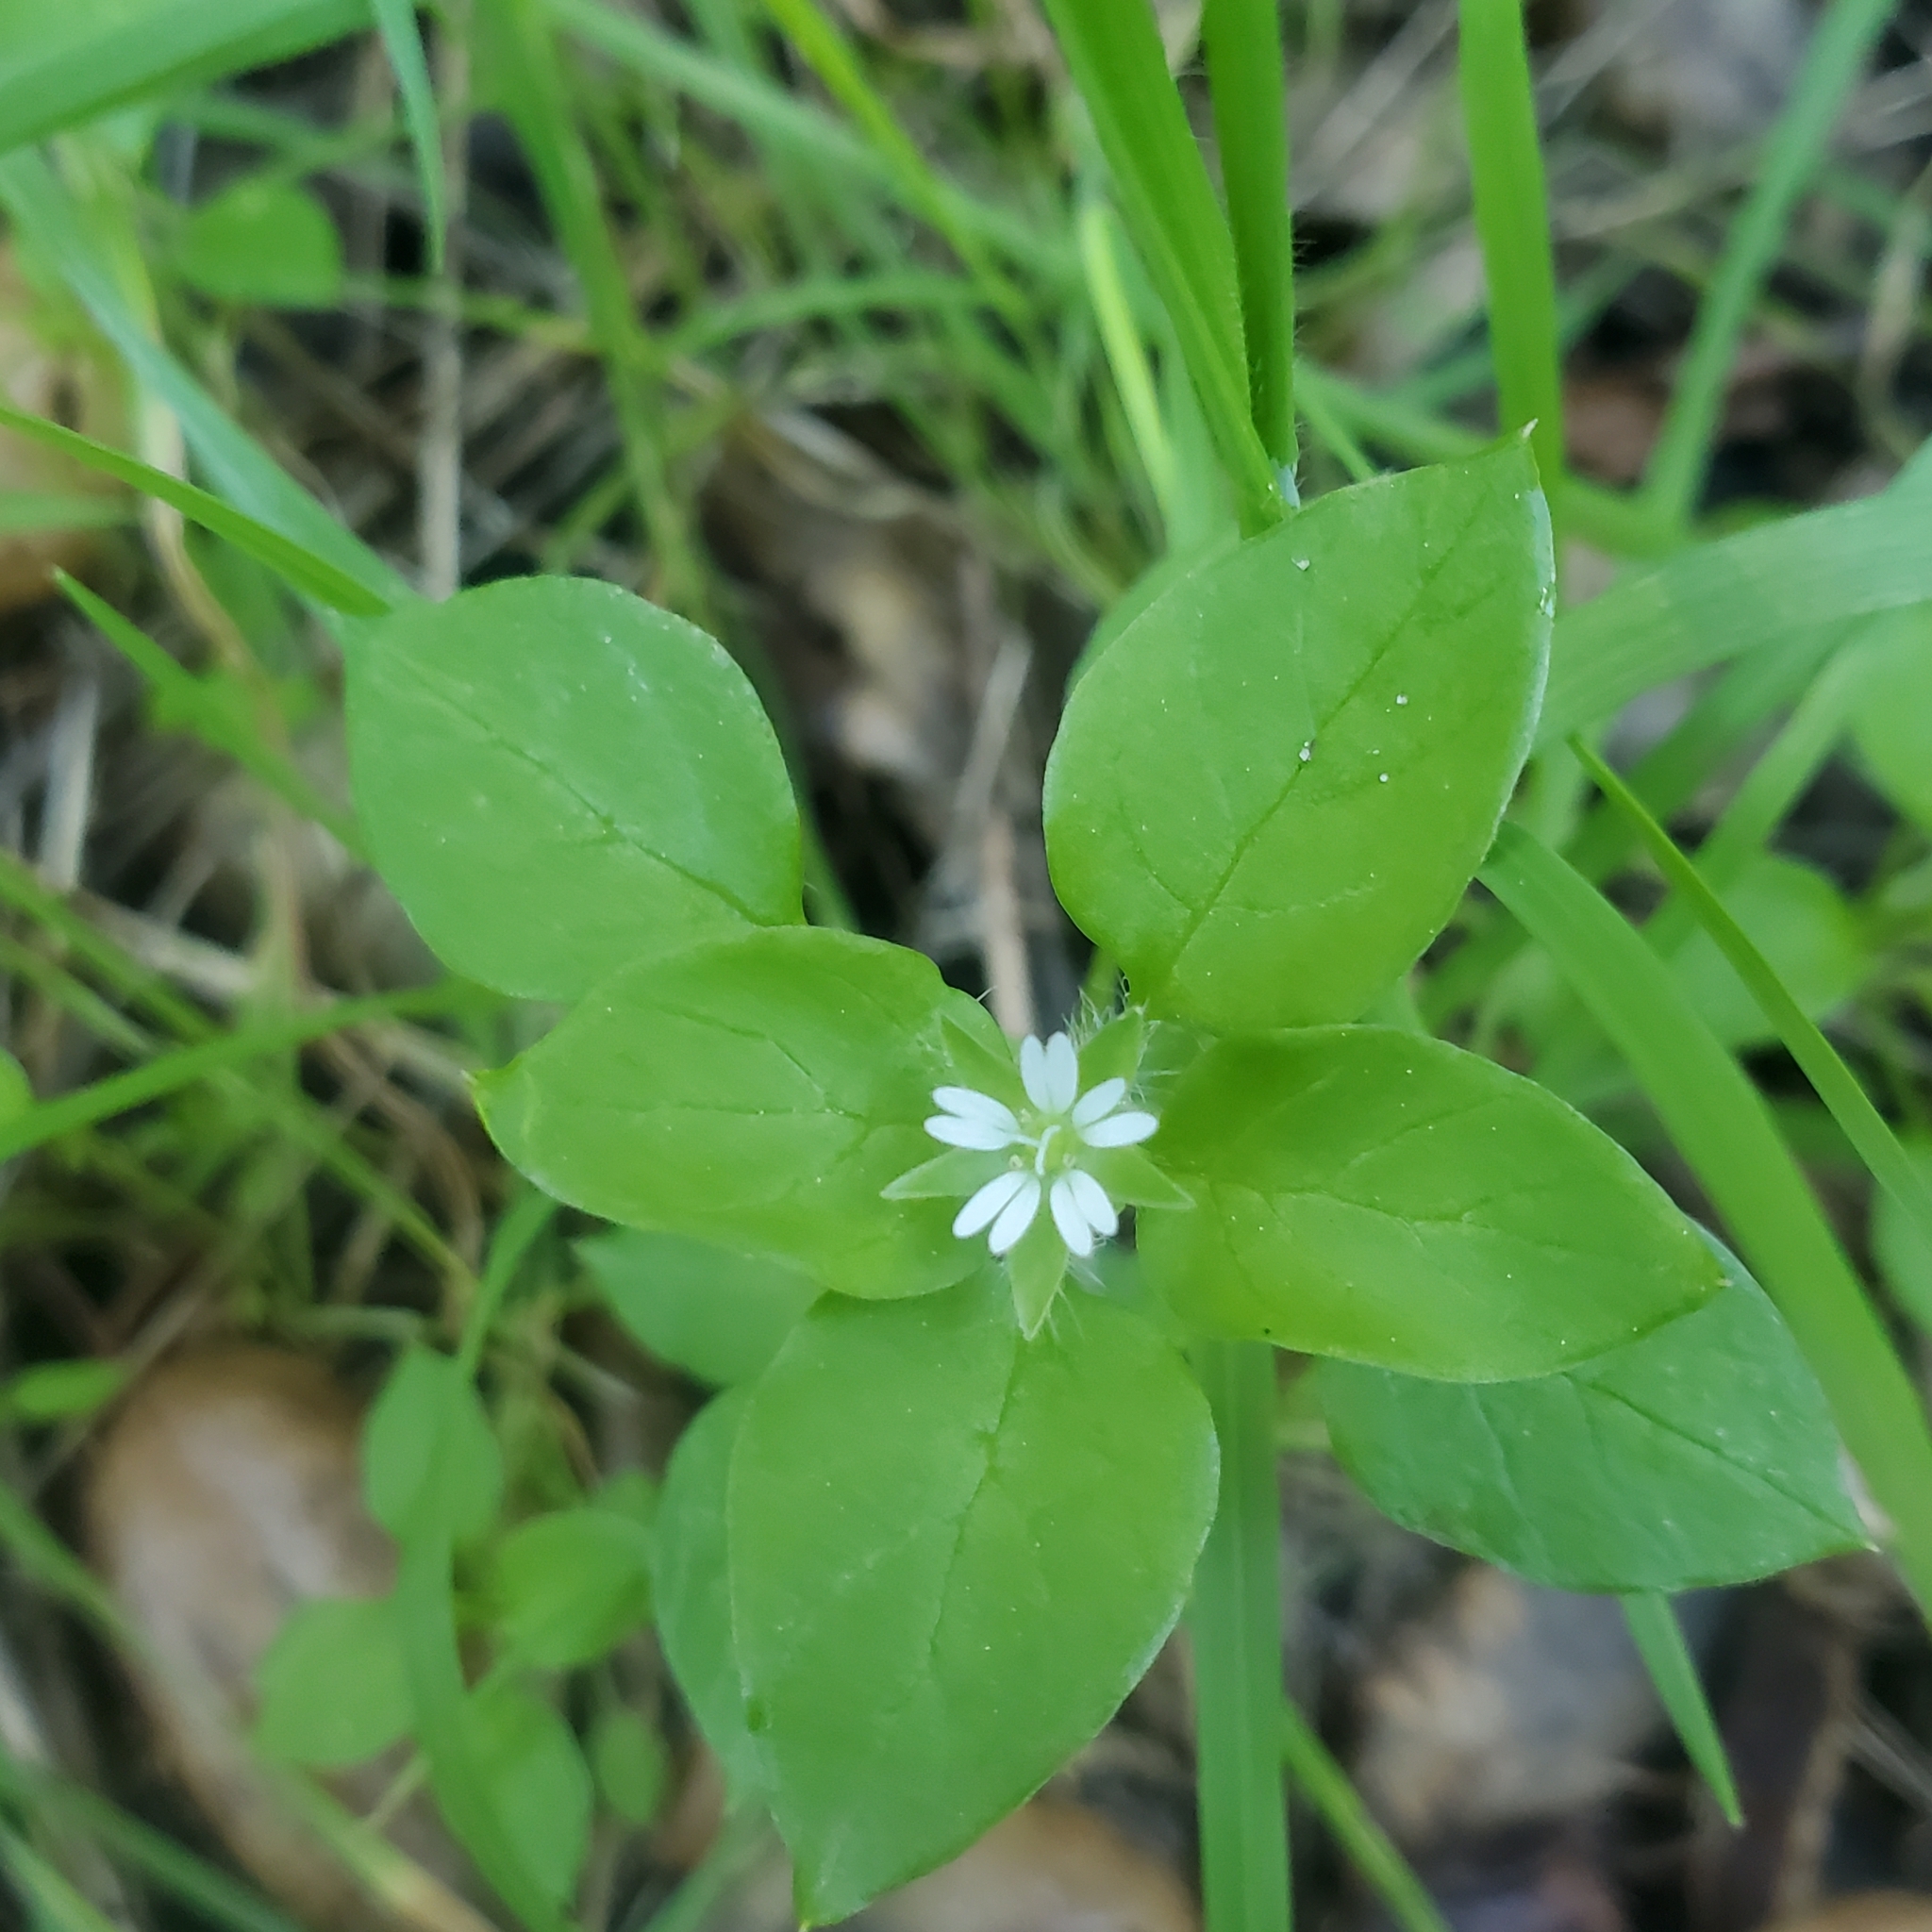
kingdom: Plantae
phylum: Tracheophyta
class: Magnoliopsida
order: Caryophyllales
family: Caryophyllaceae
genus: Stellaria
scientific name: Stellaria media
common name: Common chickweed
